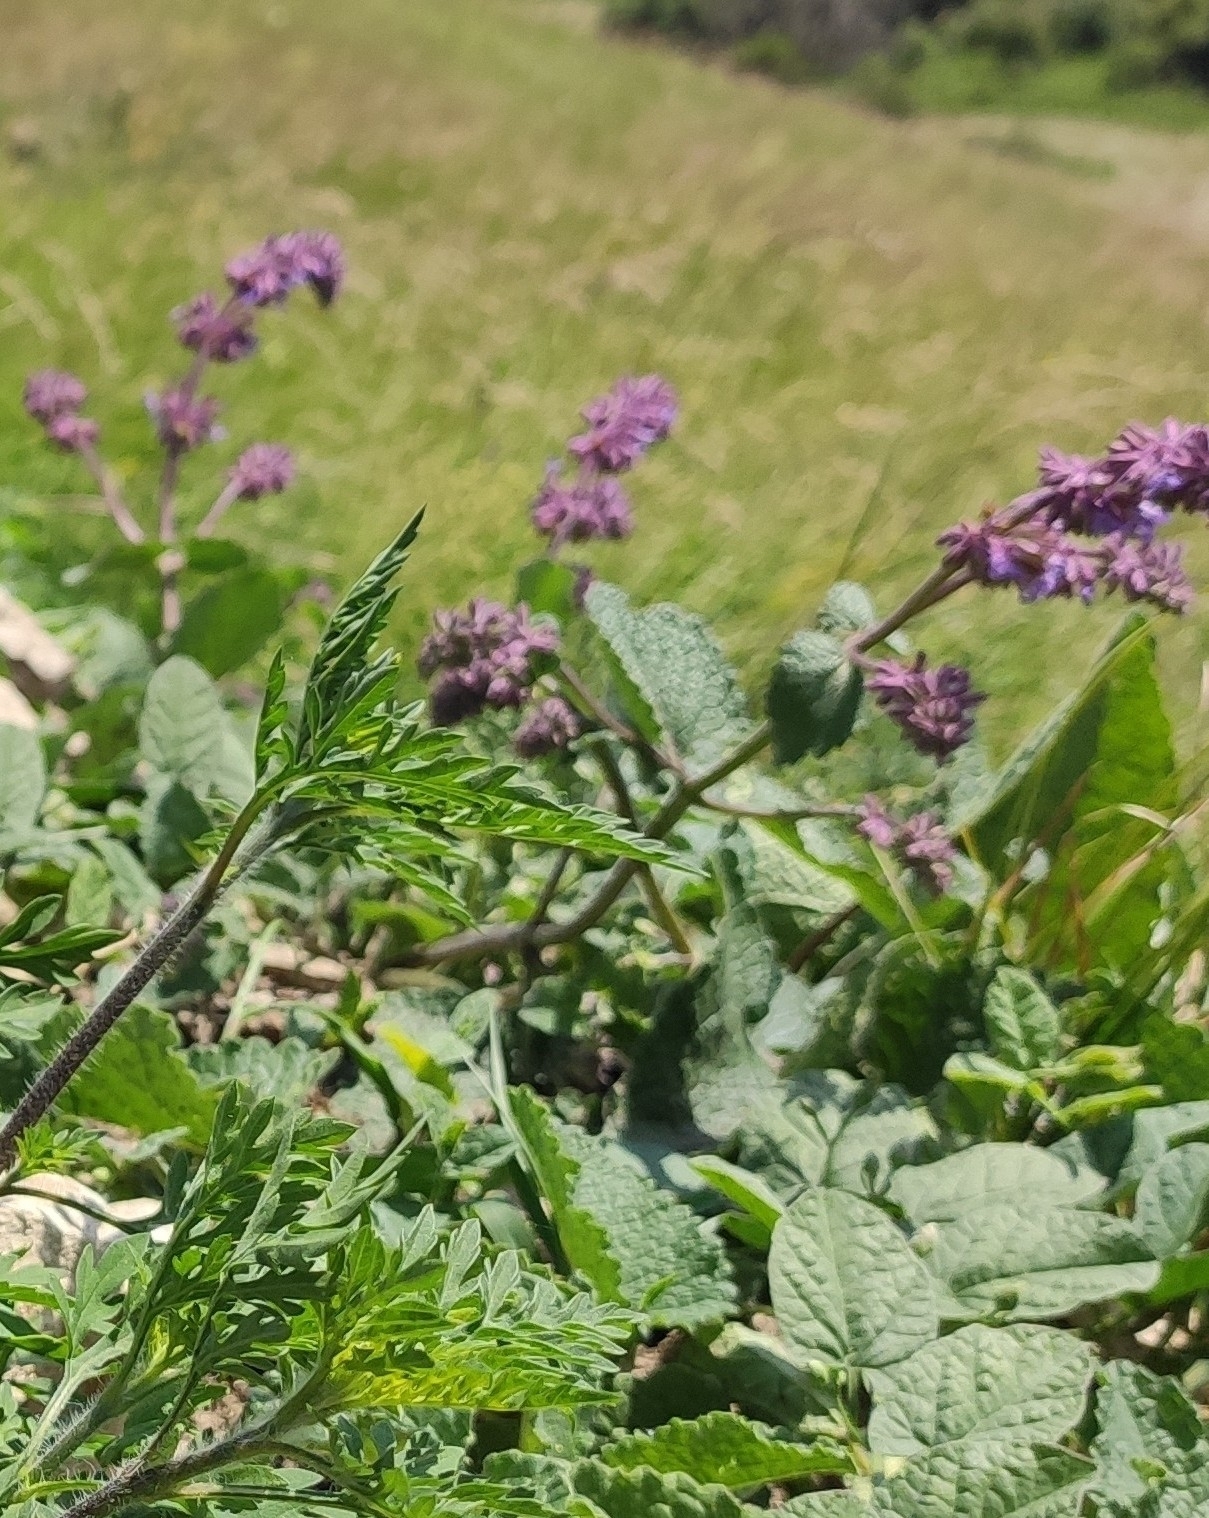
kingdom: Plantae
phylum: Tracheophyta
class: Magnoliopsida
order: Lamiales
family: Lamiaceae
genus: Salvia
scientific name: Salvia verticillata
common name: Whorled clary
